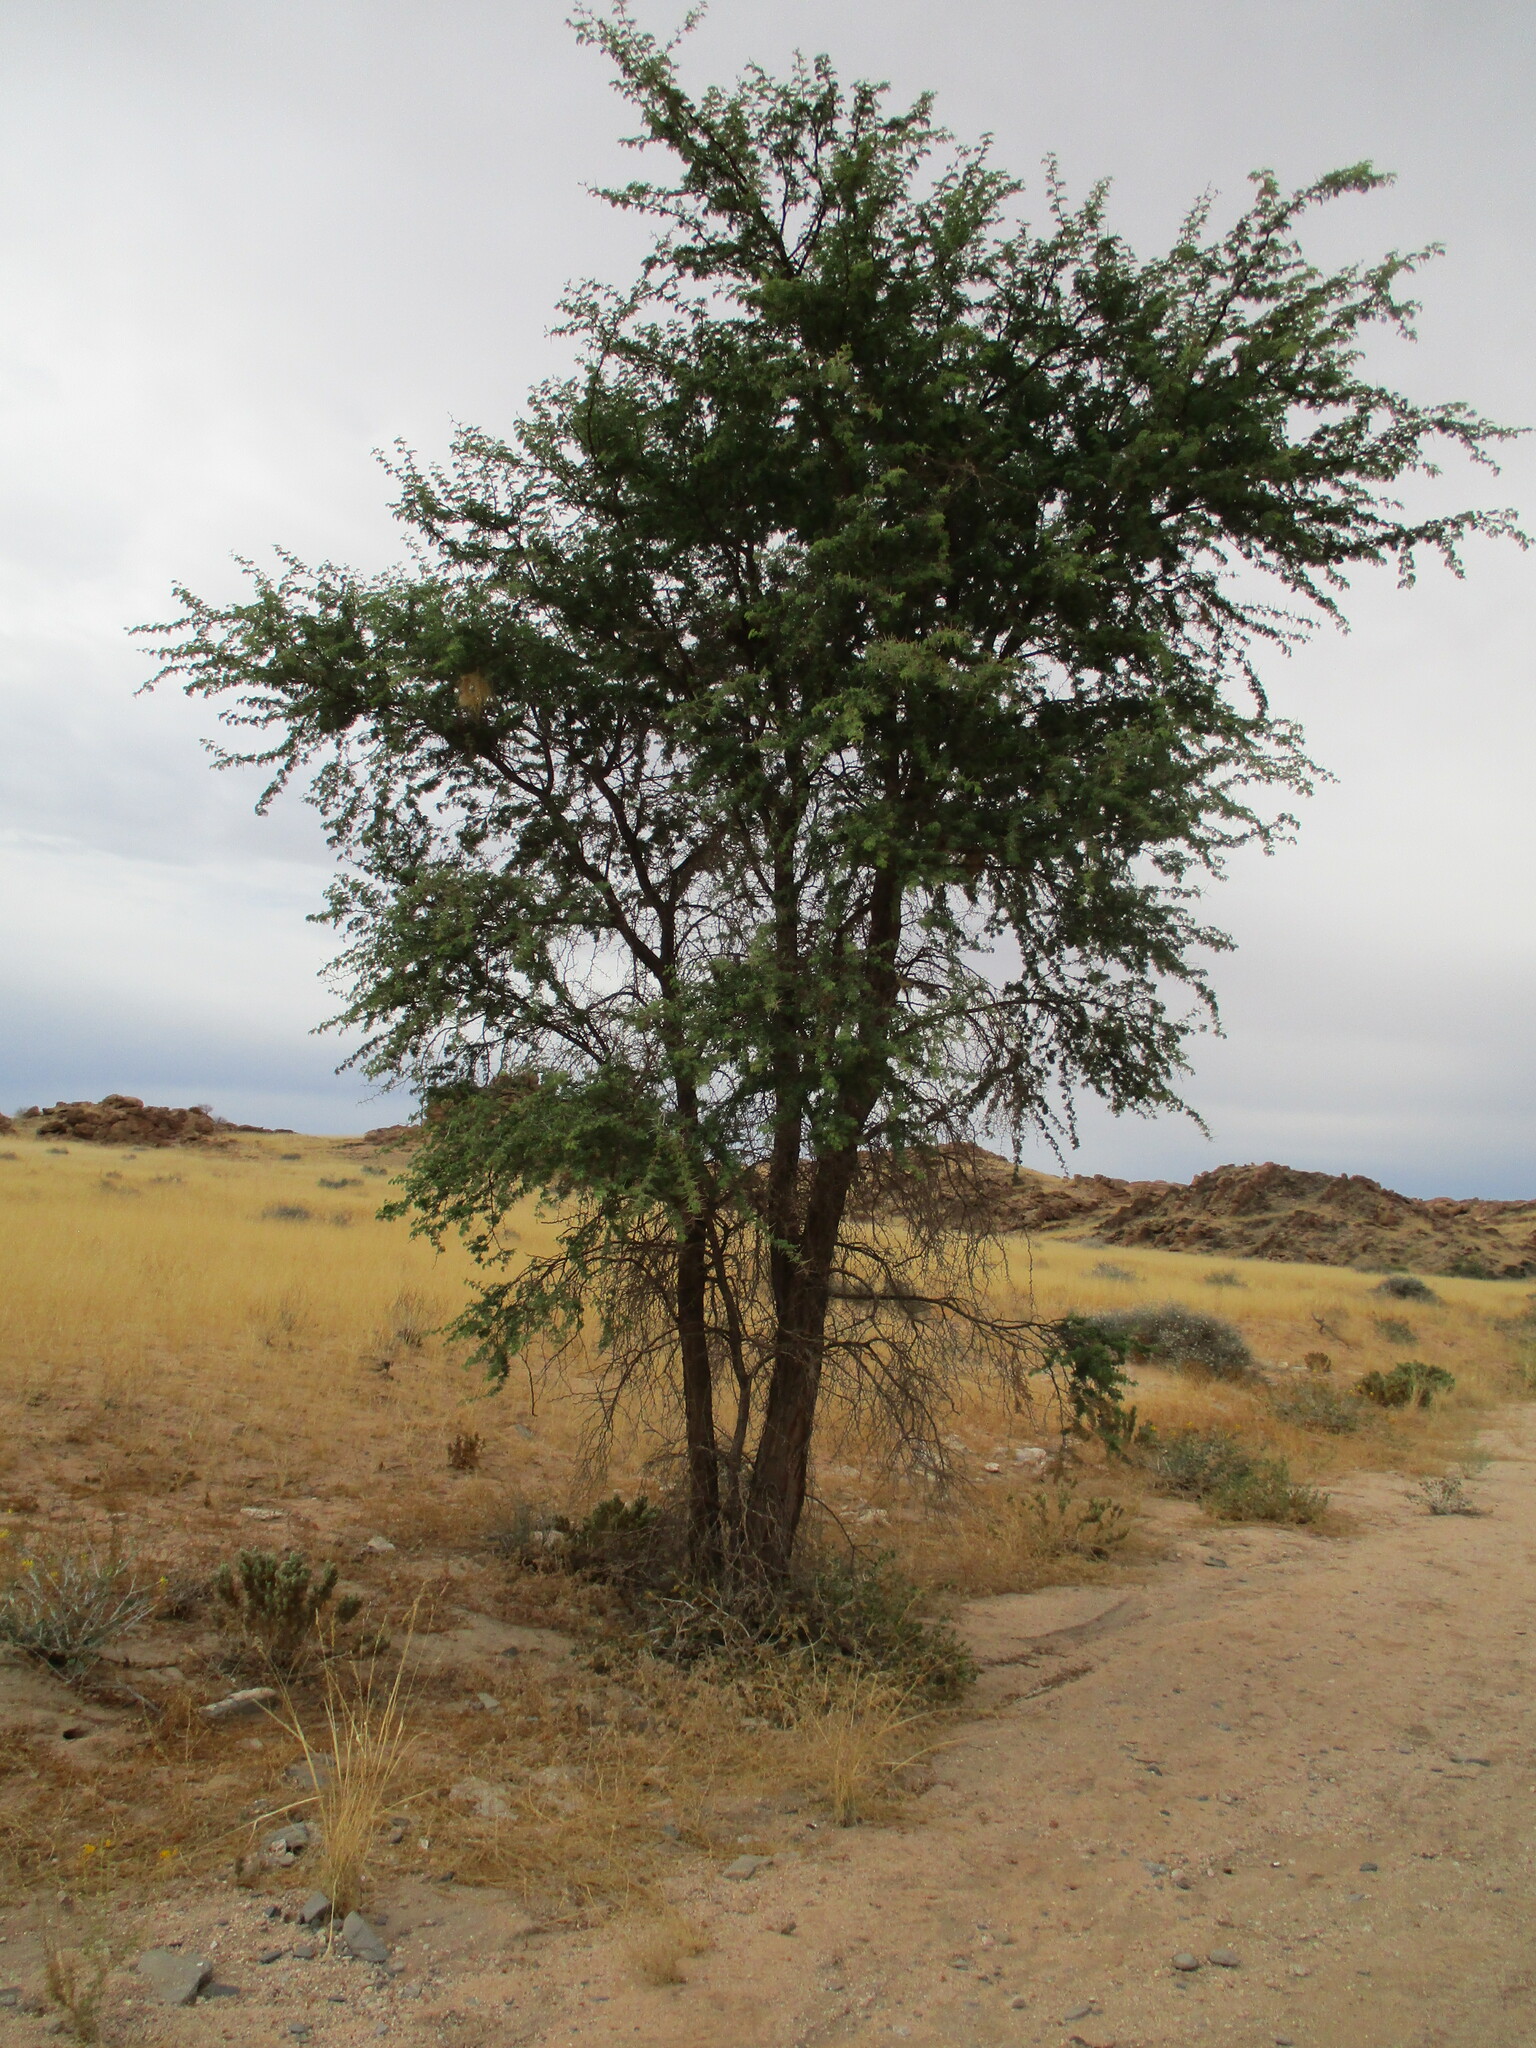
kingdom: Plantae
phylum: Tracheophyta
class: Magnoliopsida
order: Fabales
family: Fabaceae
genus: Vachellia
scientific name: Vachellia erioloba
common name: Camel thorn
